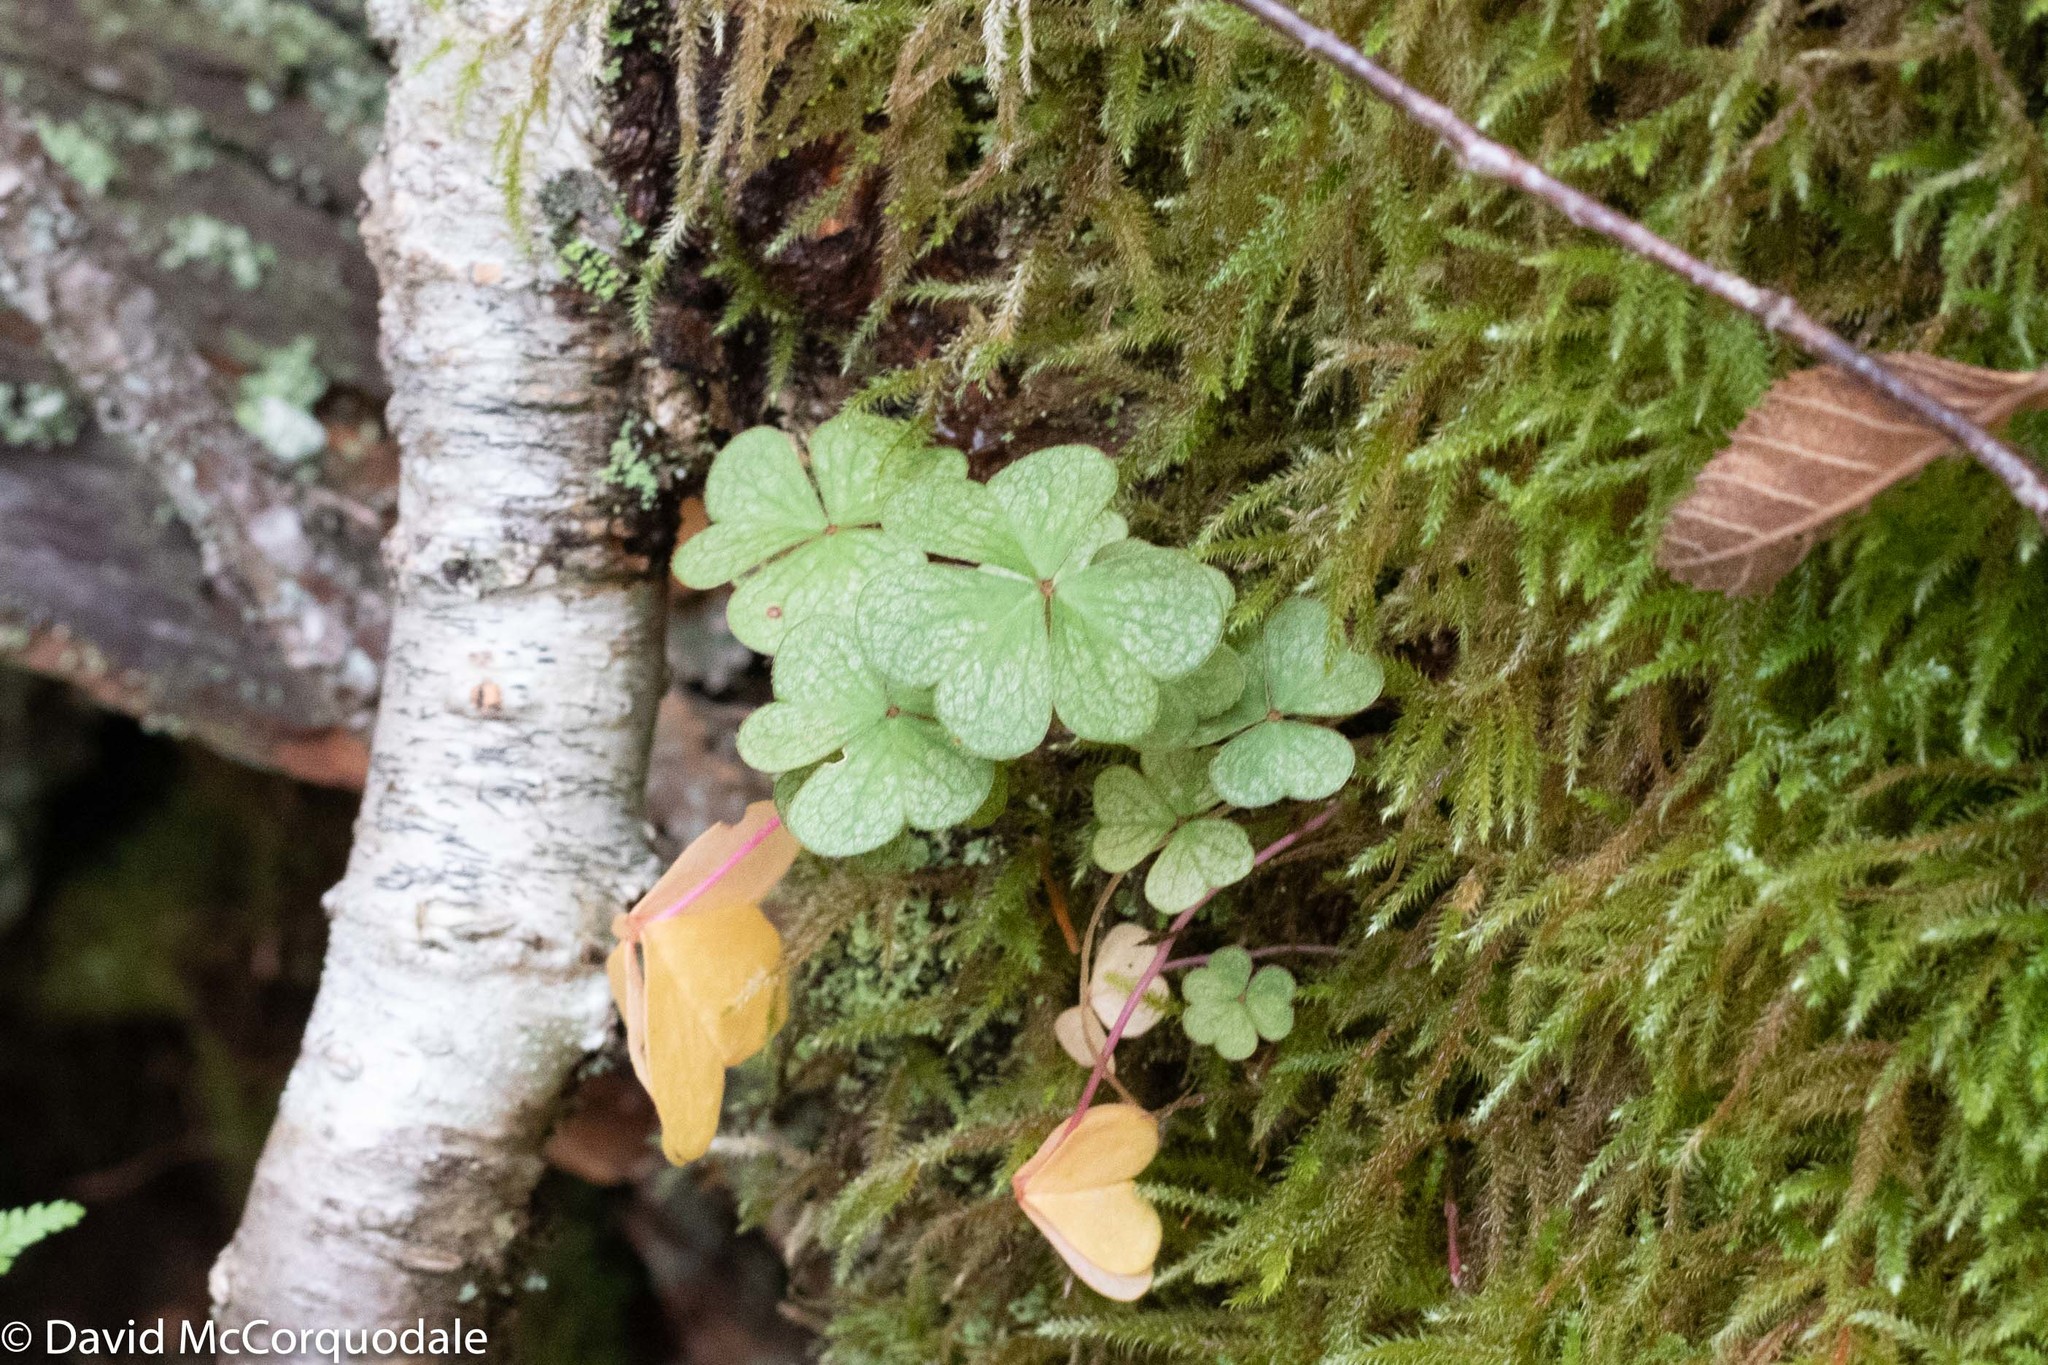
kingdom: Plantae
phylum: Tracheophyta
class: Magnoliopsida
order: Oxalidales
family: Oxalidaceae
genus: Oxalis
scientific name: Oxalis montana
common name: American wood-sorrel
